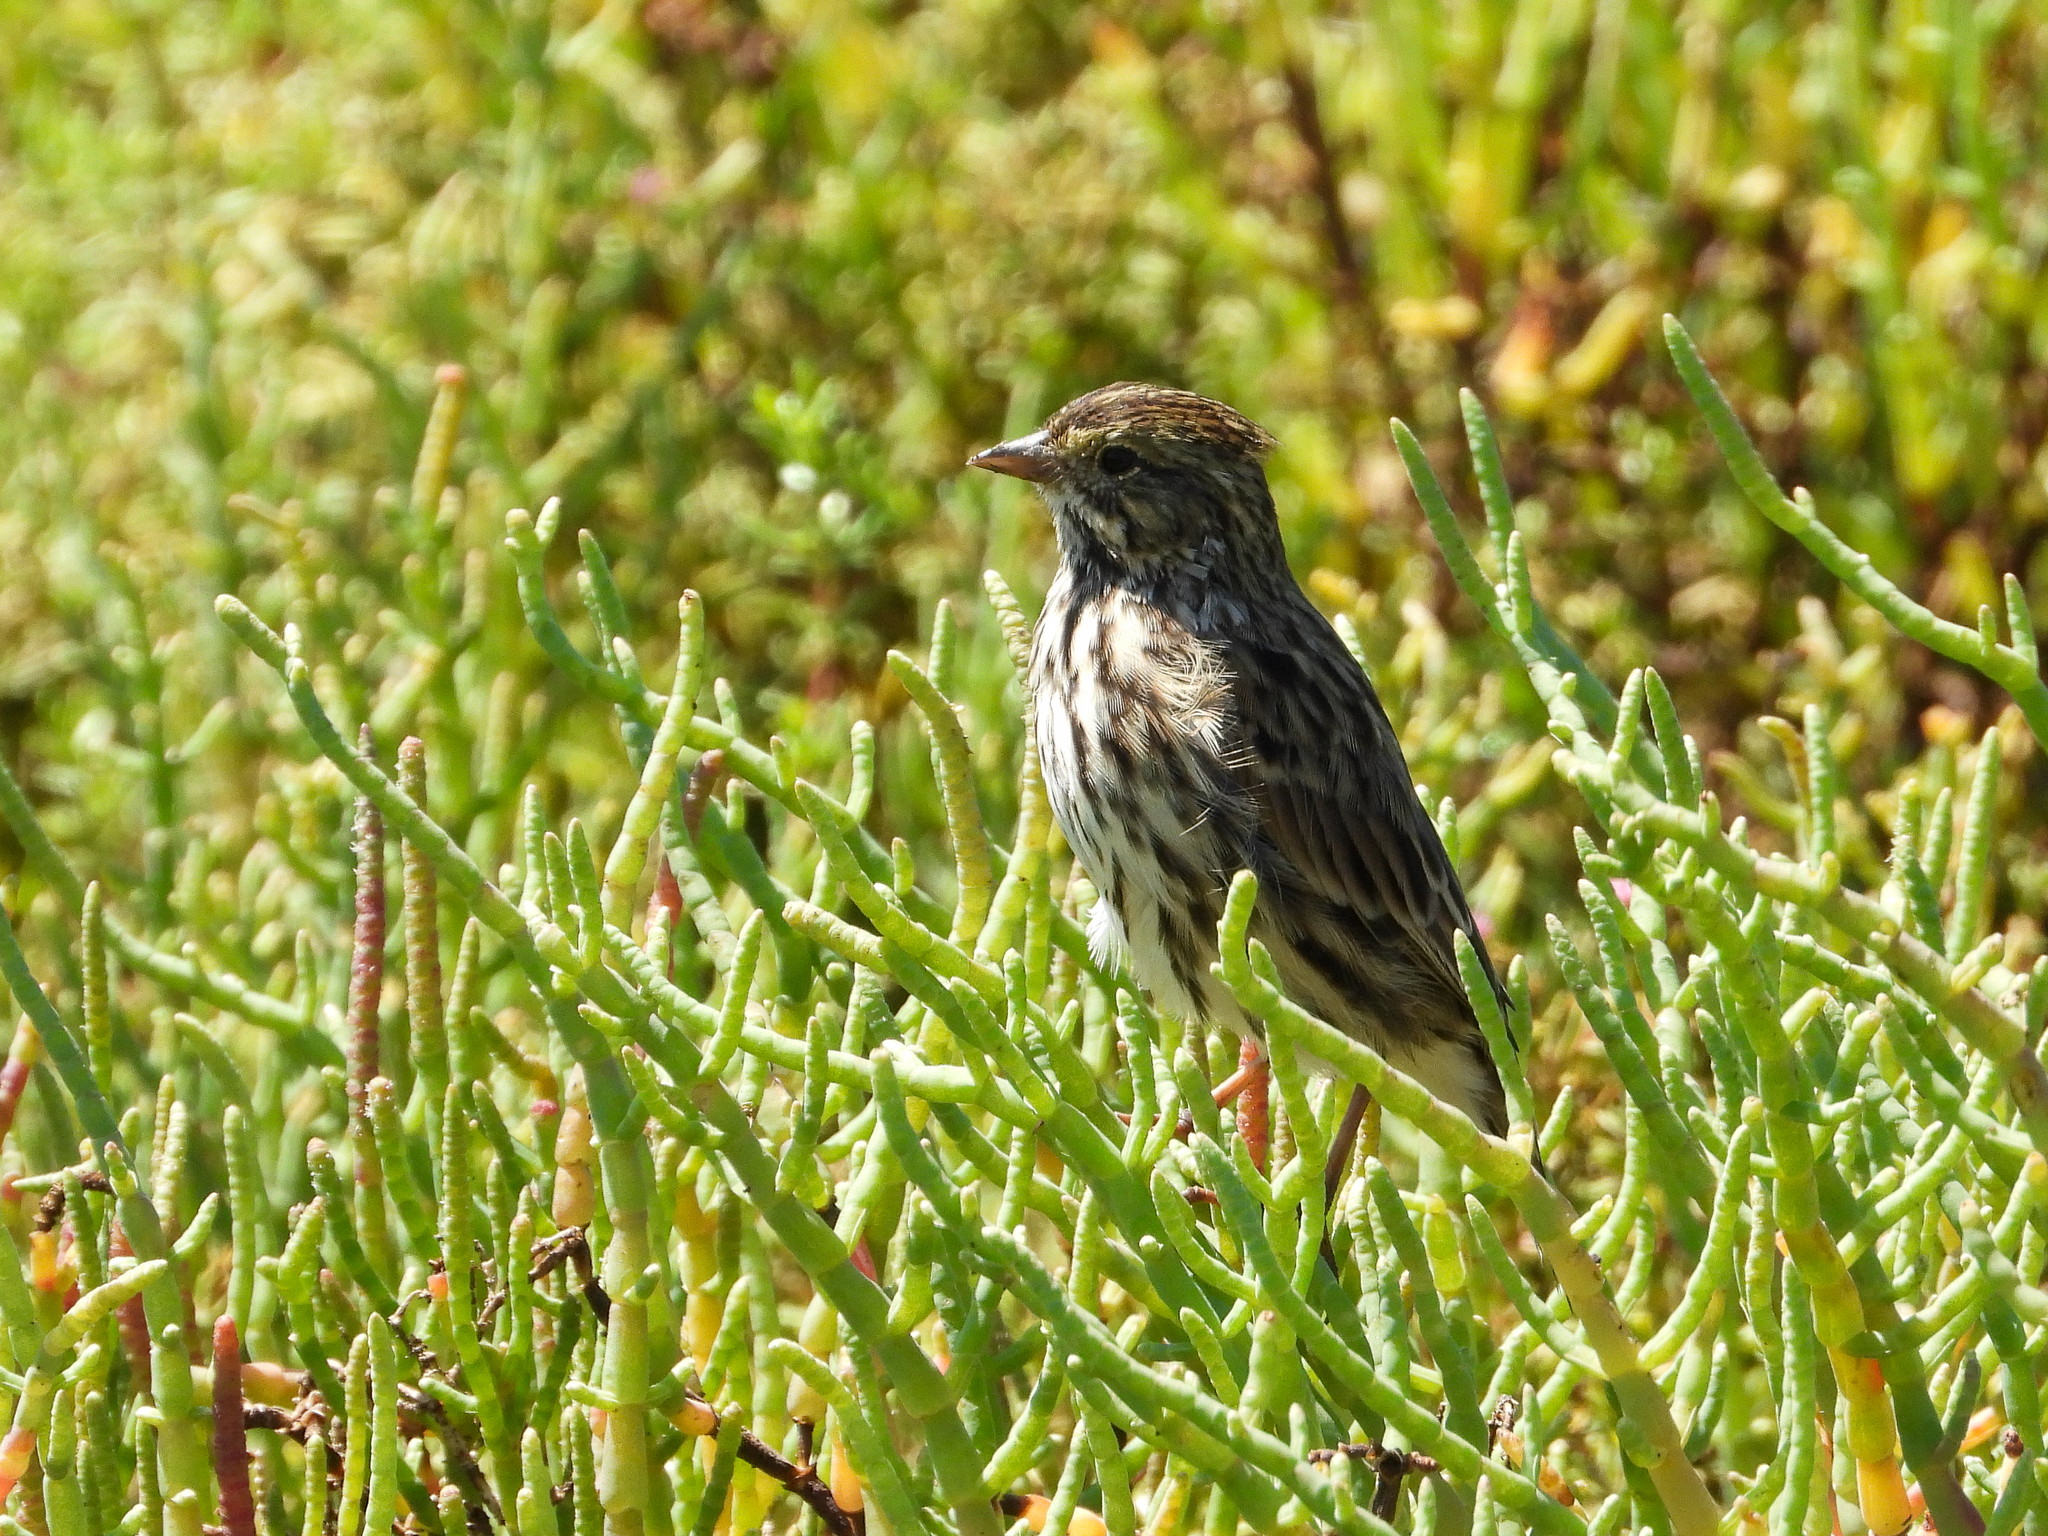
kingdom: Animalia
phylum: Chordata
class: Aves
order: Passeriformes
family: Passerellidae
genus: Passerculus
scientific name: Passerculus sandwichensis
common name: Savannah sparrow
